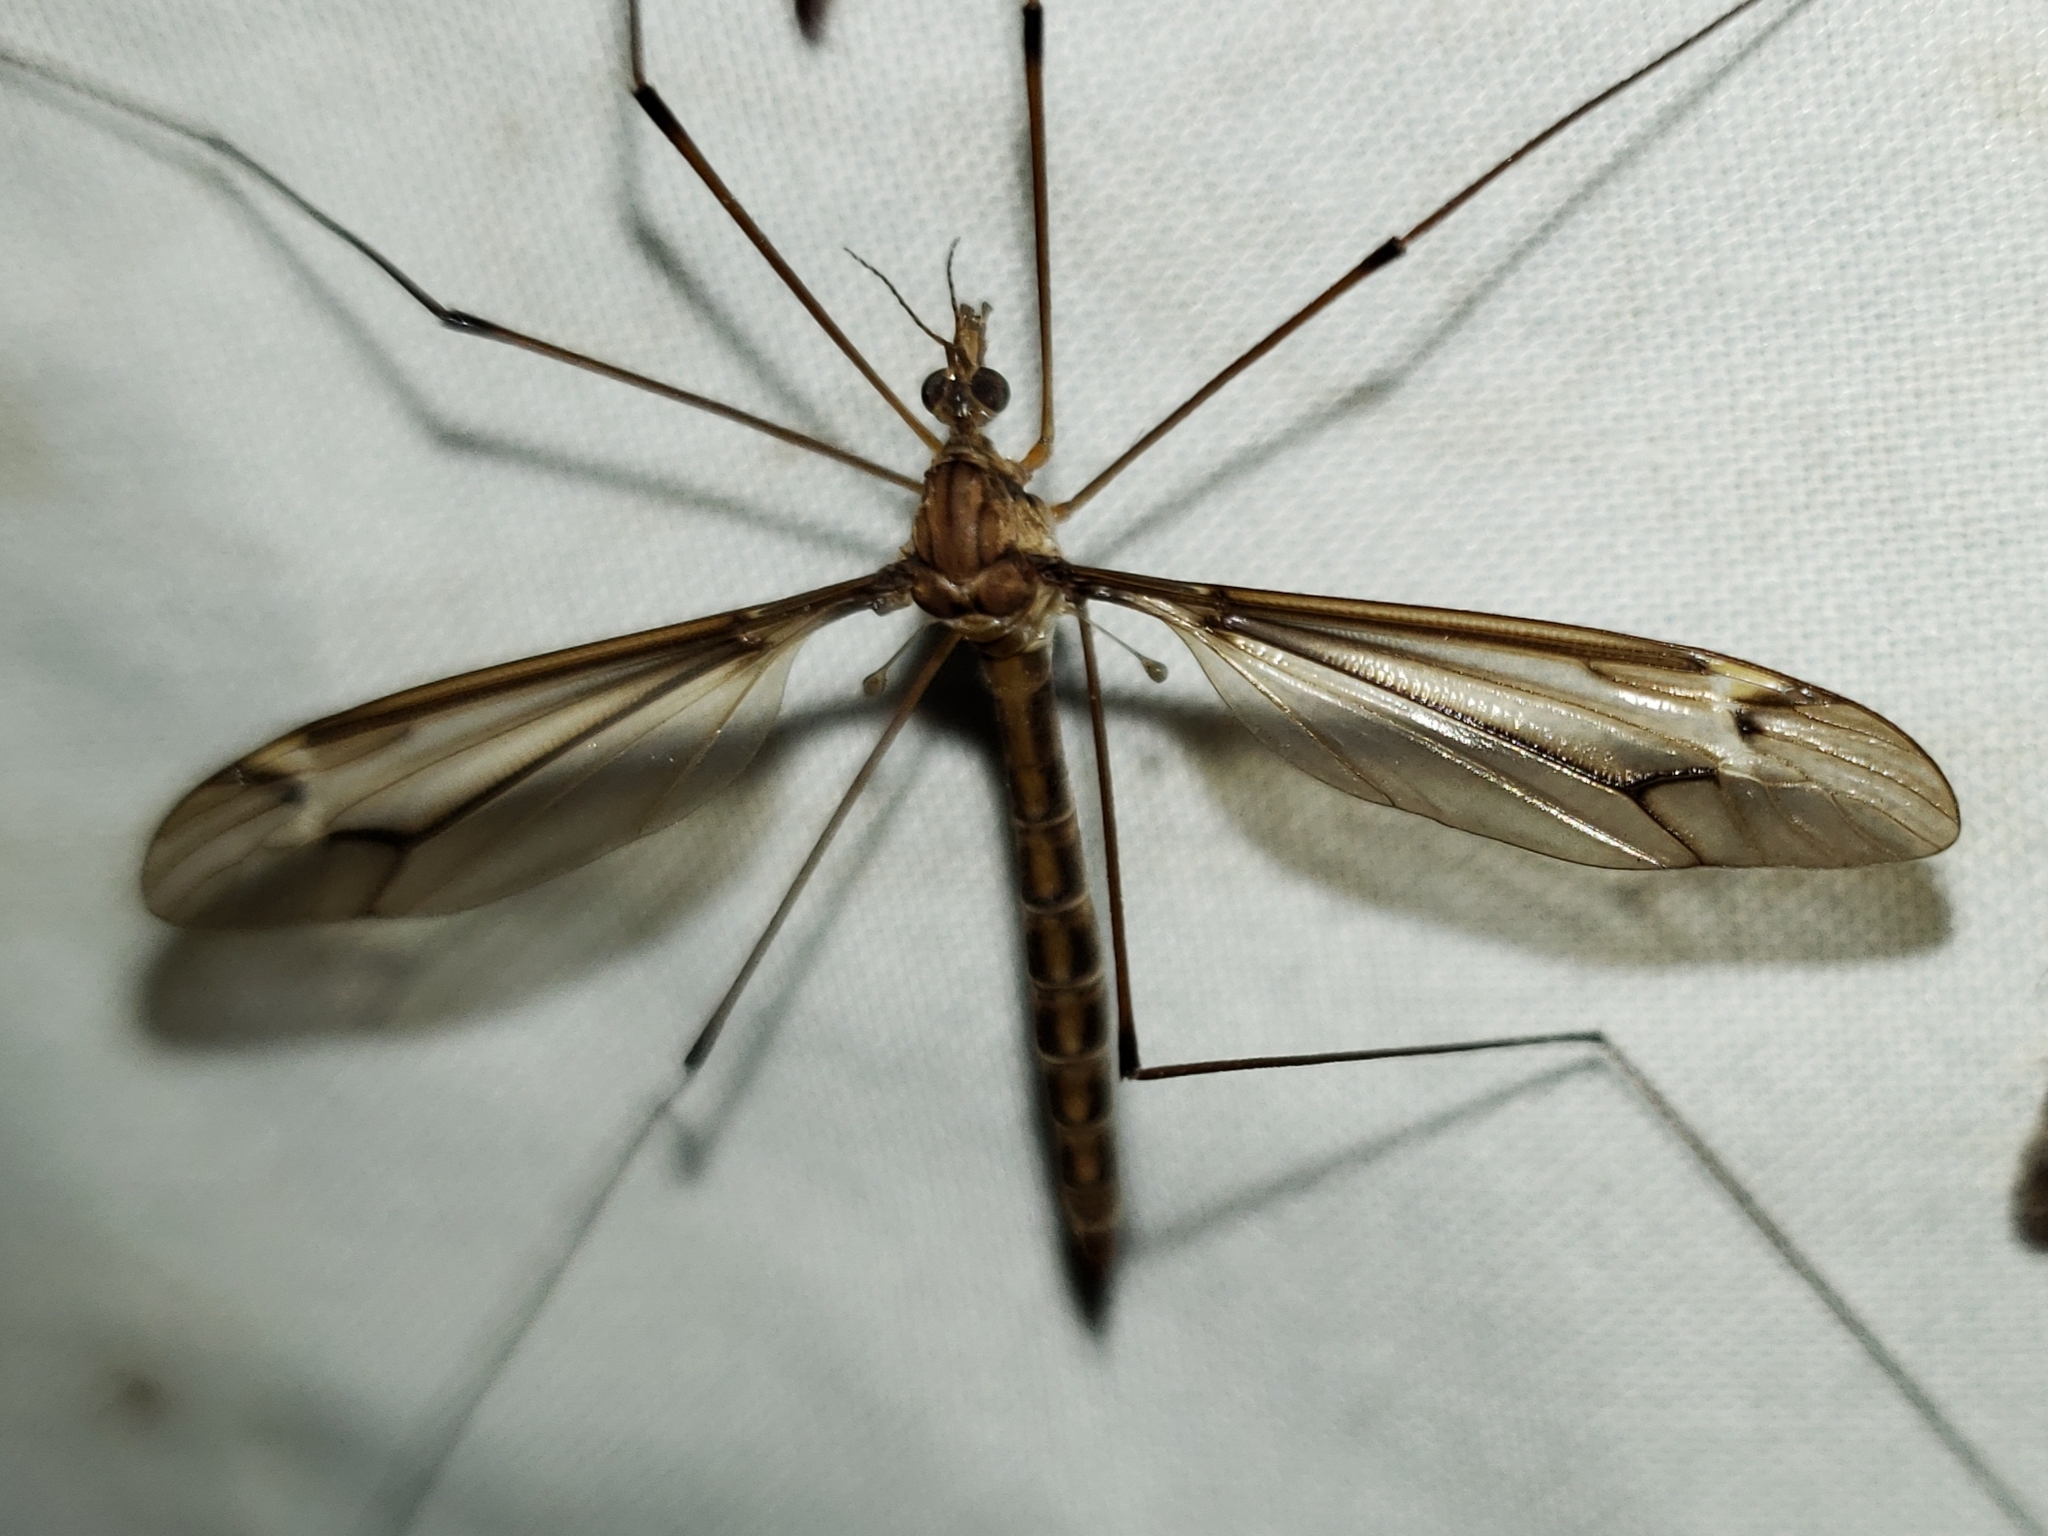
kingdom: Animalia
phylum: Arthropoda
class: Insecta
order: Diptera
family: Tipulidae
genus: Tipula
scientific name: Tipula subeluta
